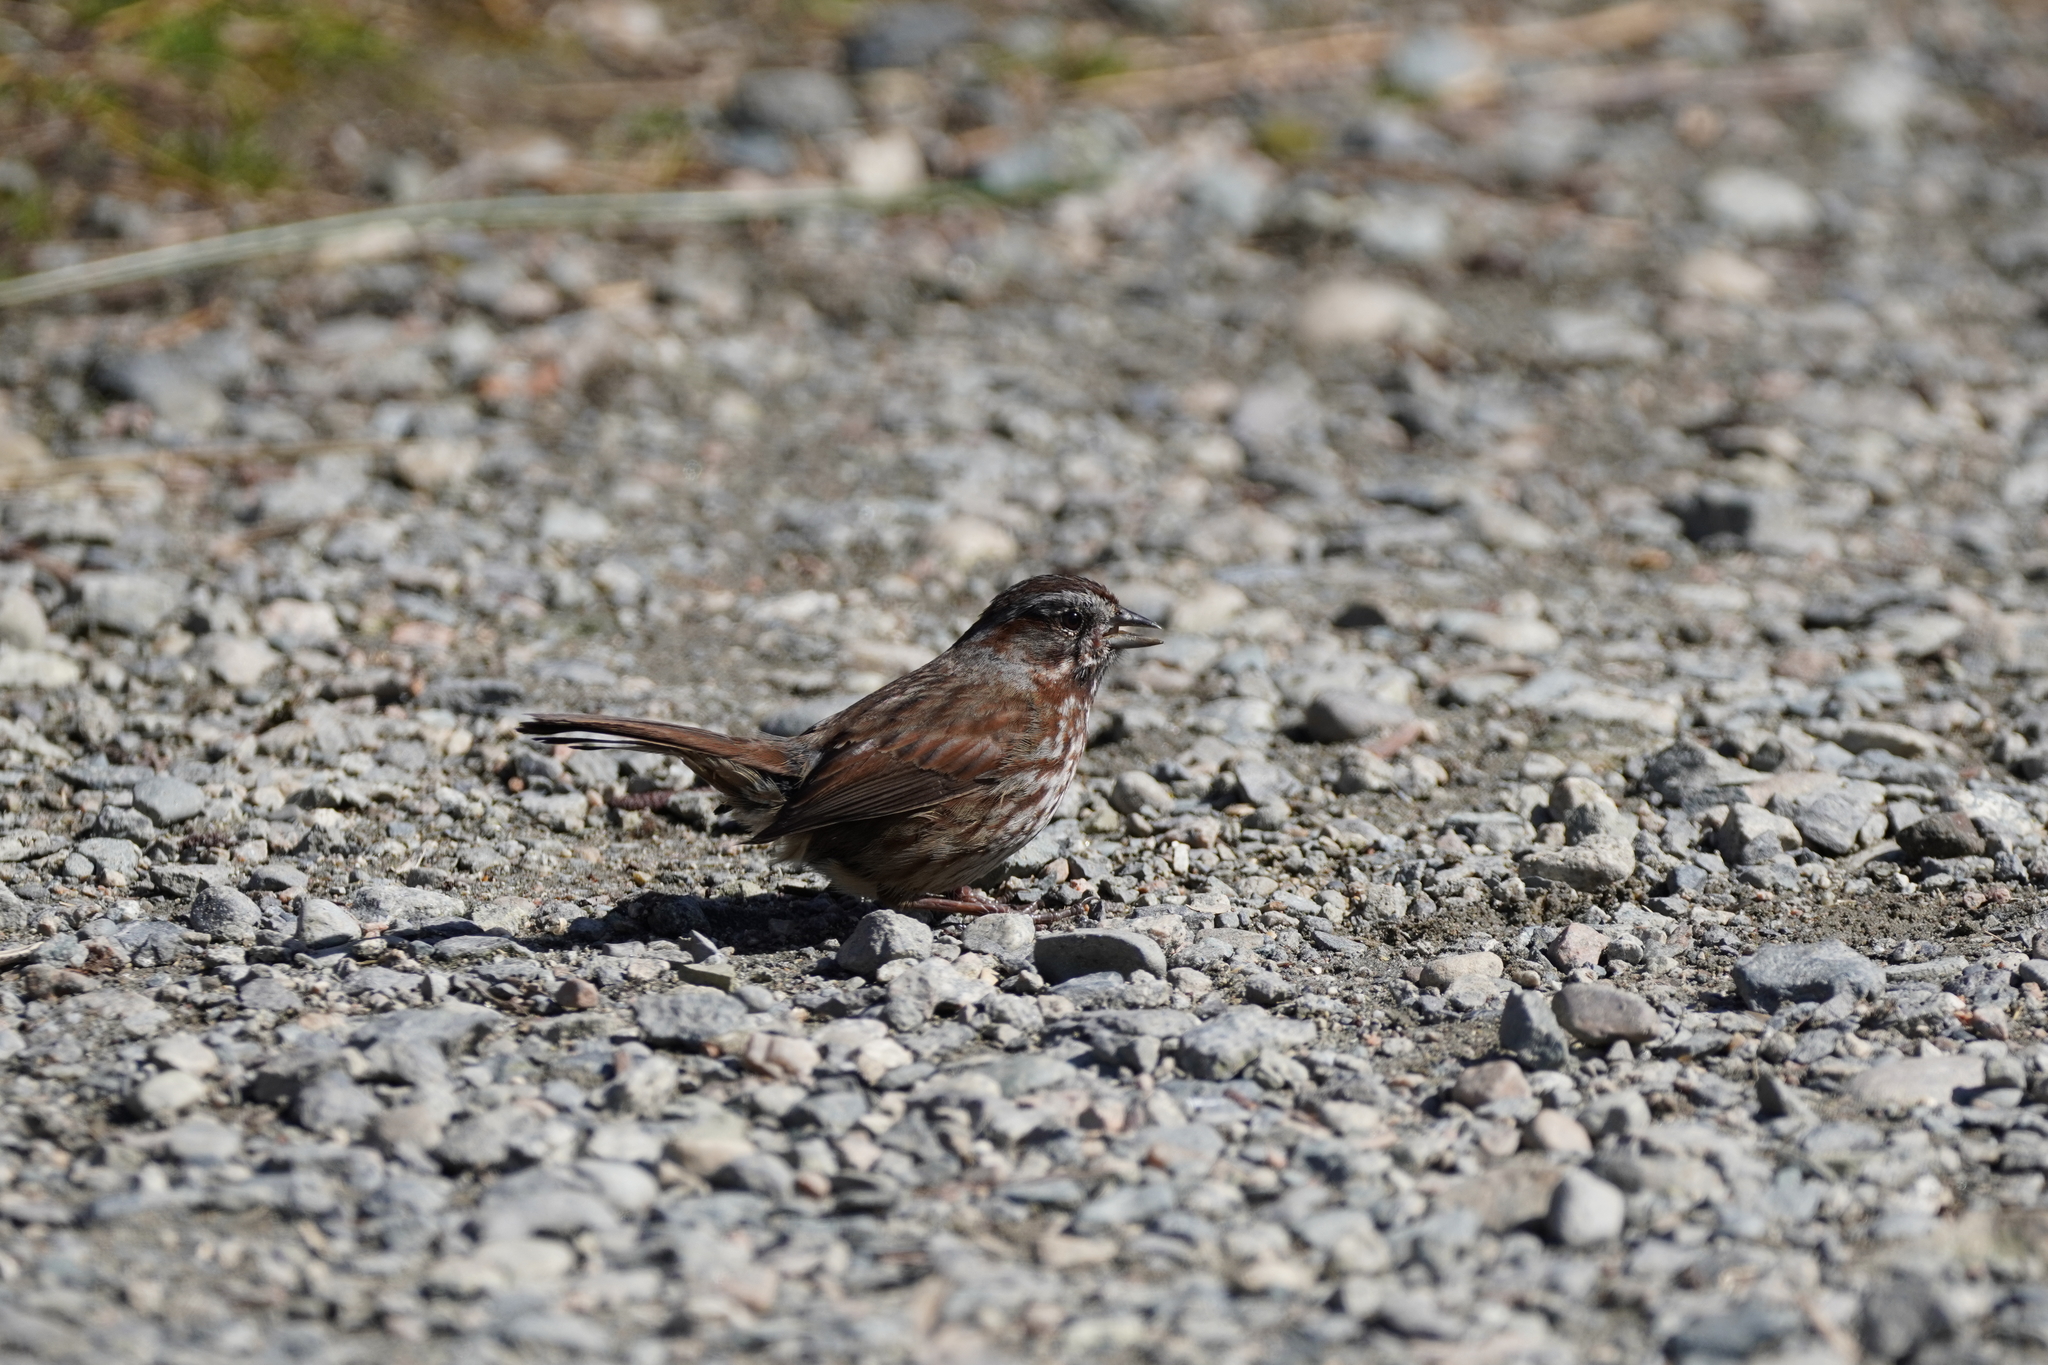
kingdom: Animalia
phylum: Chordata
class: Aves
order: Passeriformes
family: Passerellidae
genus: Melospiza
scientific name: Melospiza melodia
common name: Song sparrow
